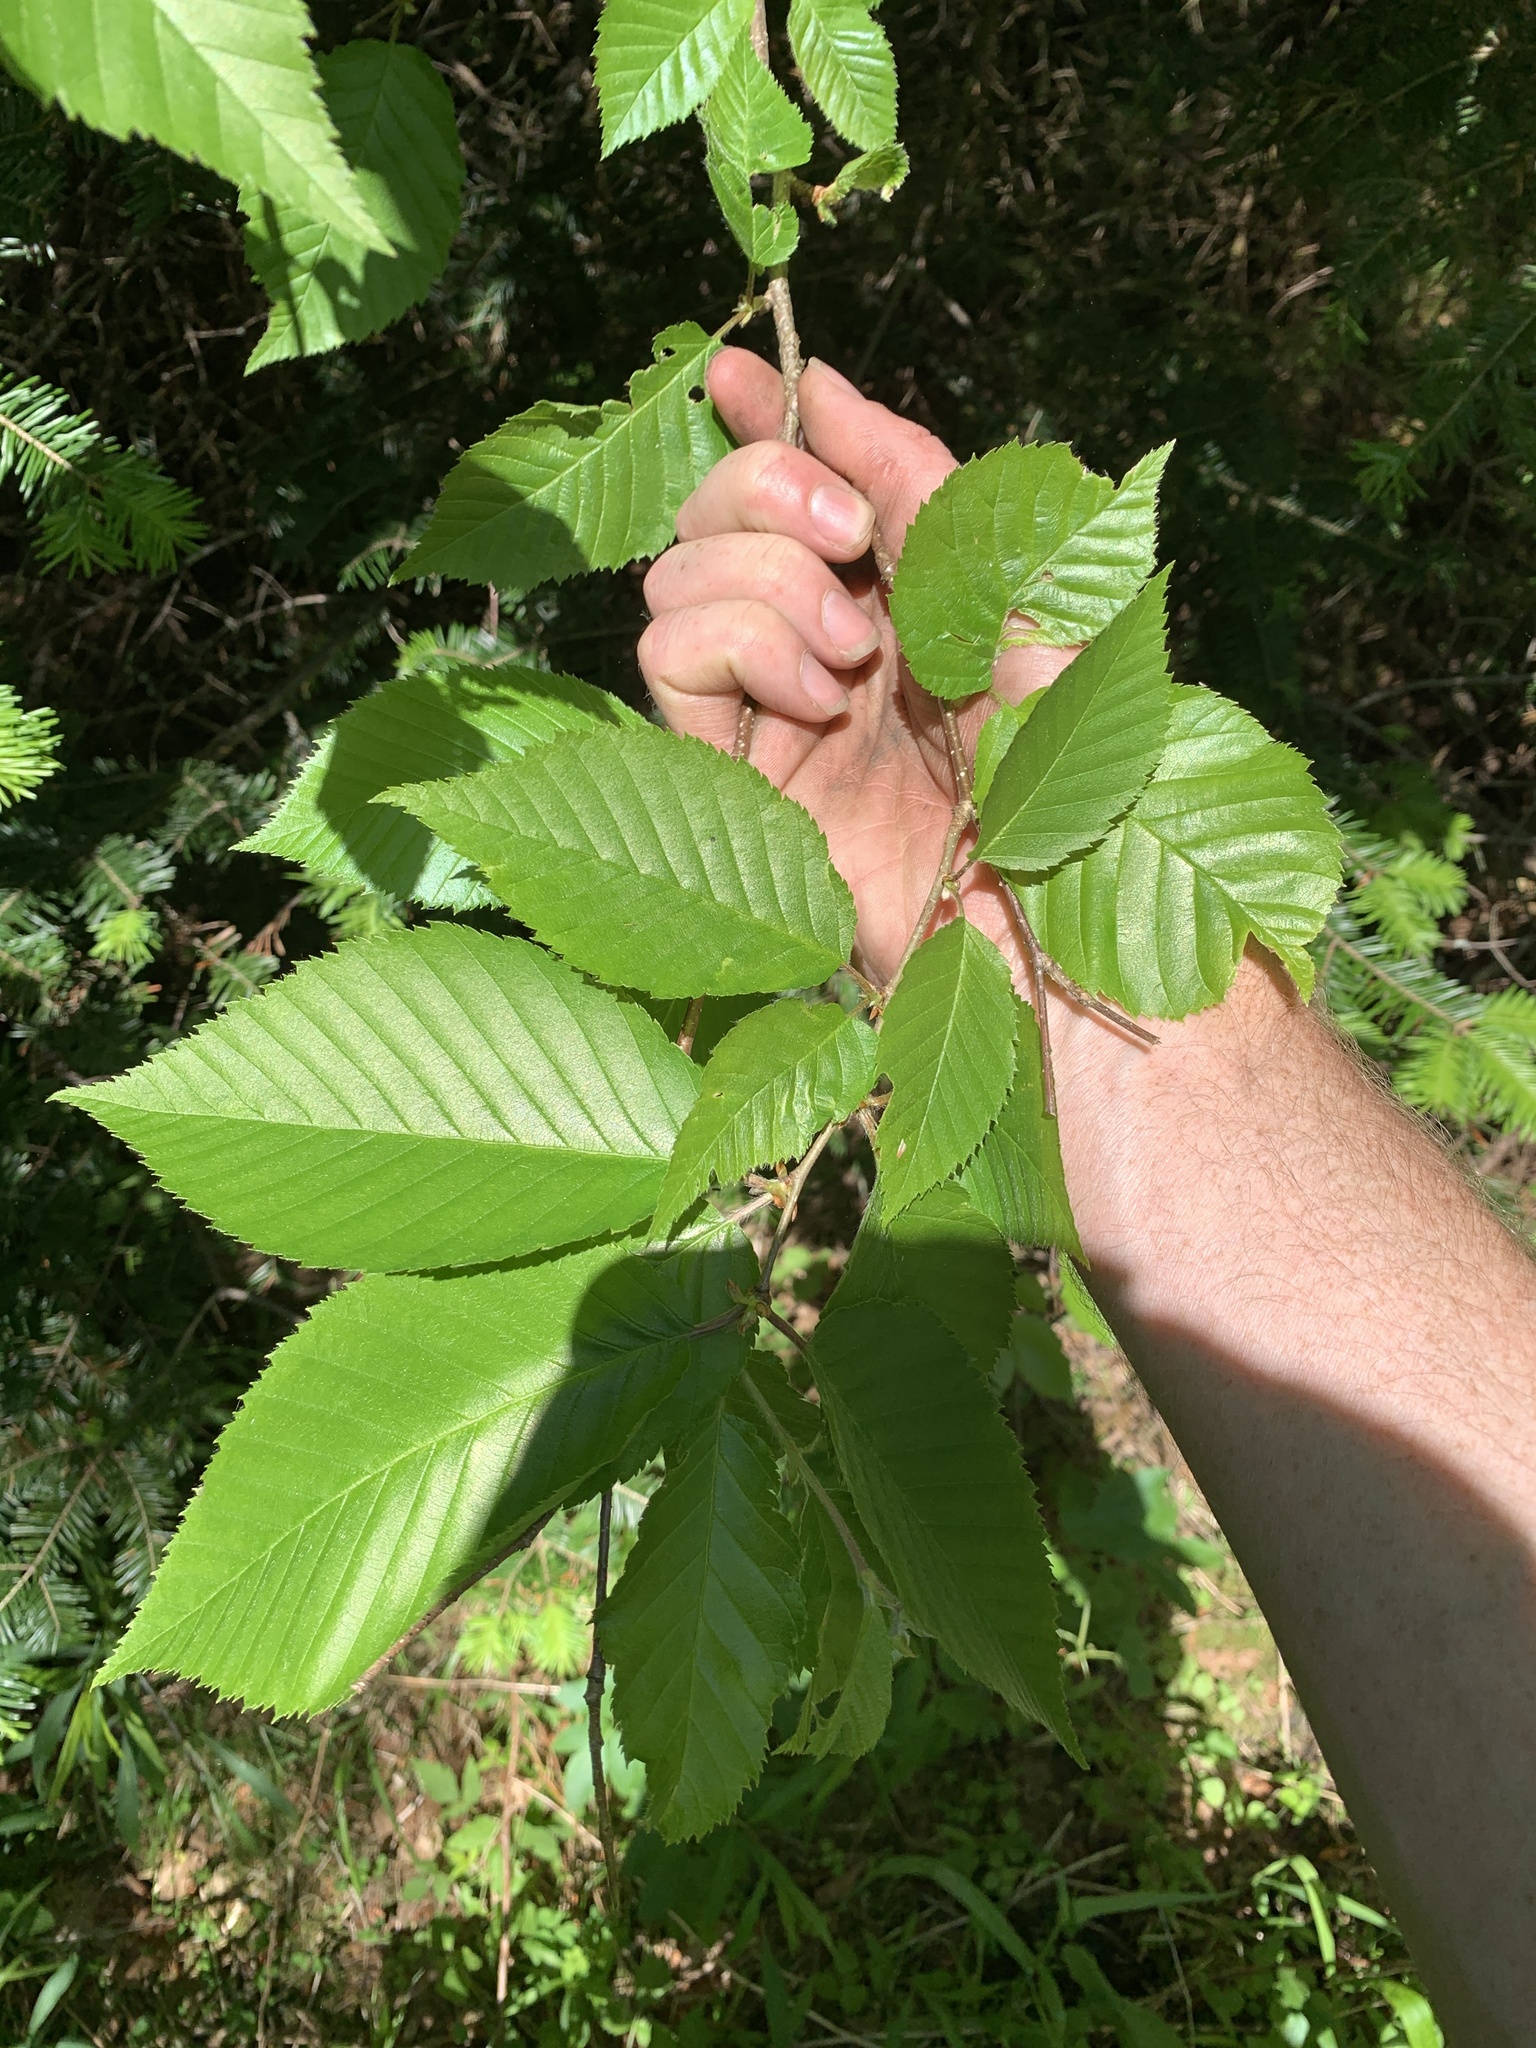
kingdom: Plantae
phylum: Tracheophyta
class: Magnoliopsida
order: Fagales
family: Betulaceae
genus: Betula
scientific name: Betula alleghaniensis
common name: Yellow birch
